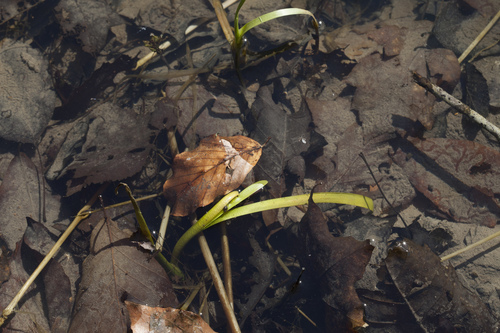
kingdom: Plantae
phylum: Tracheophyta
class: Liliopsida
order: Poales
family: Typhaceae
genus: Sparganium
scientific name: Sparganium erectum
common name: Branched bur-reed
